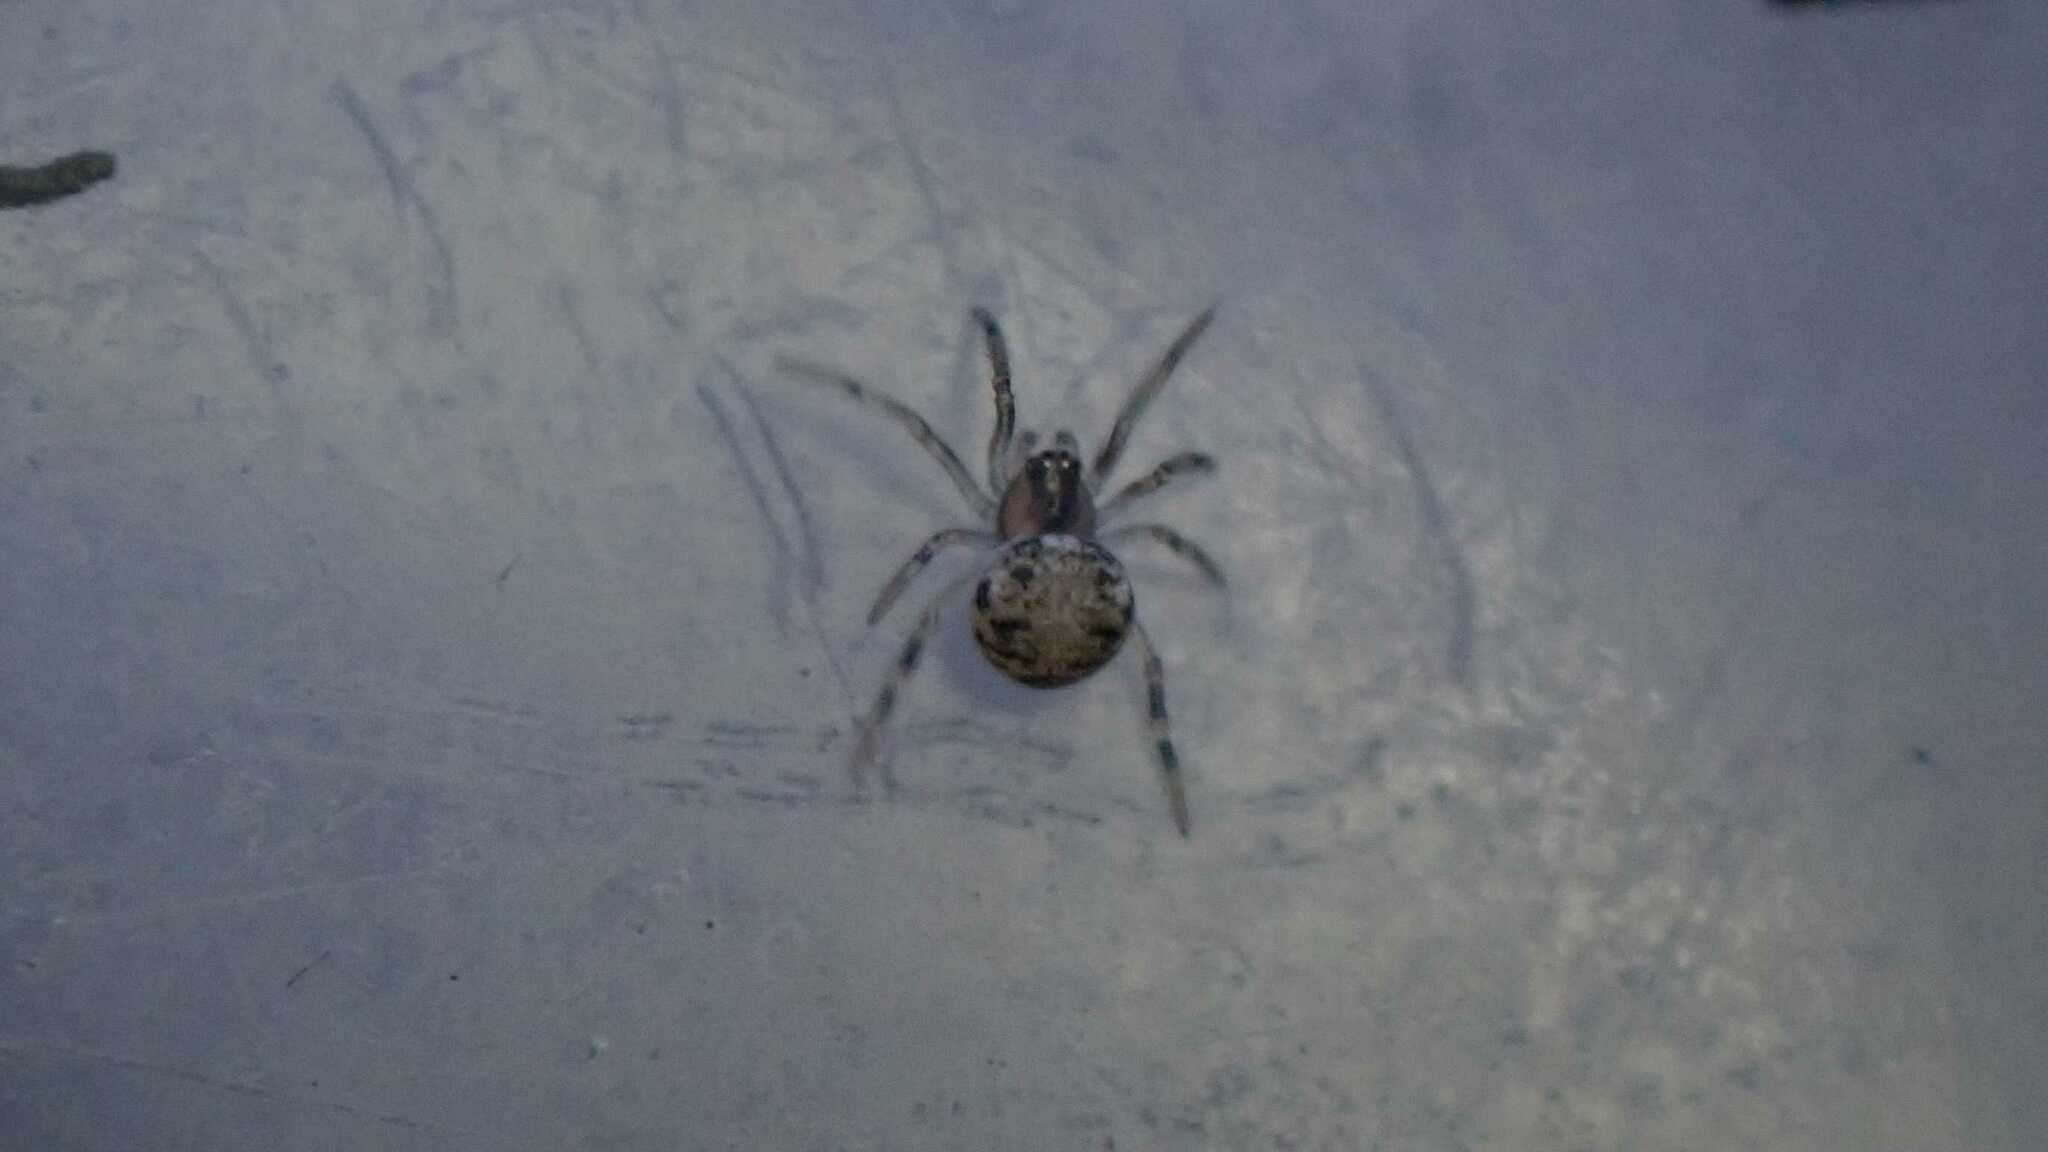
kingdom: Animalia
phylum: Arthropoda
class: Arachnida
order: Araneae
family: Theridiidae
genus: Paidiscura
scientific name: Paidiscura pallens
